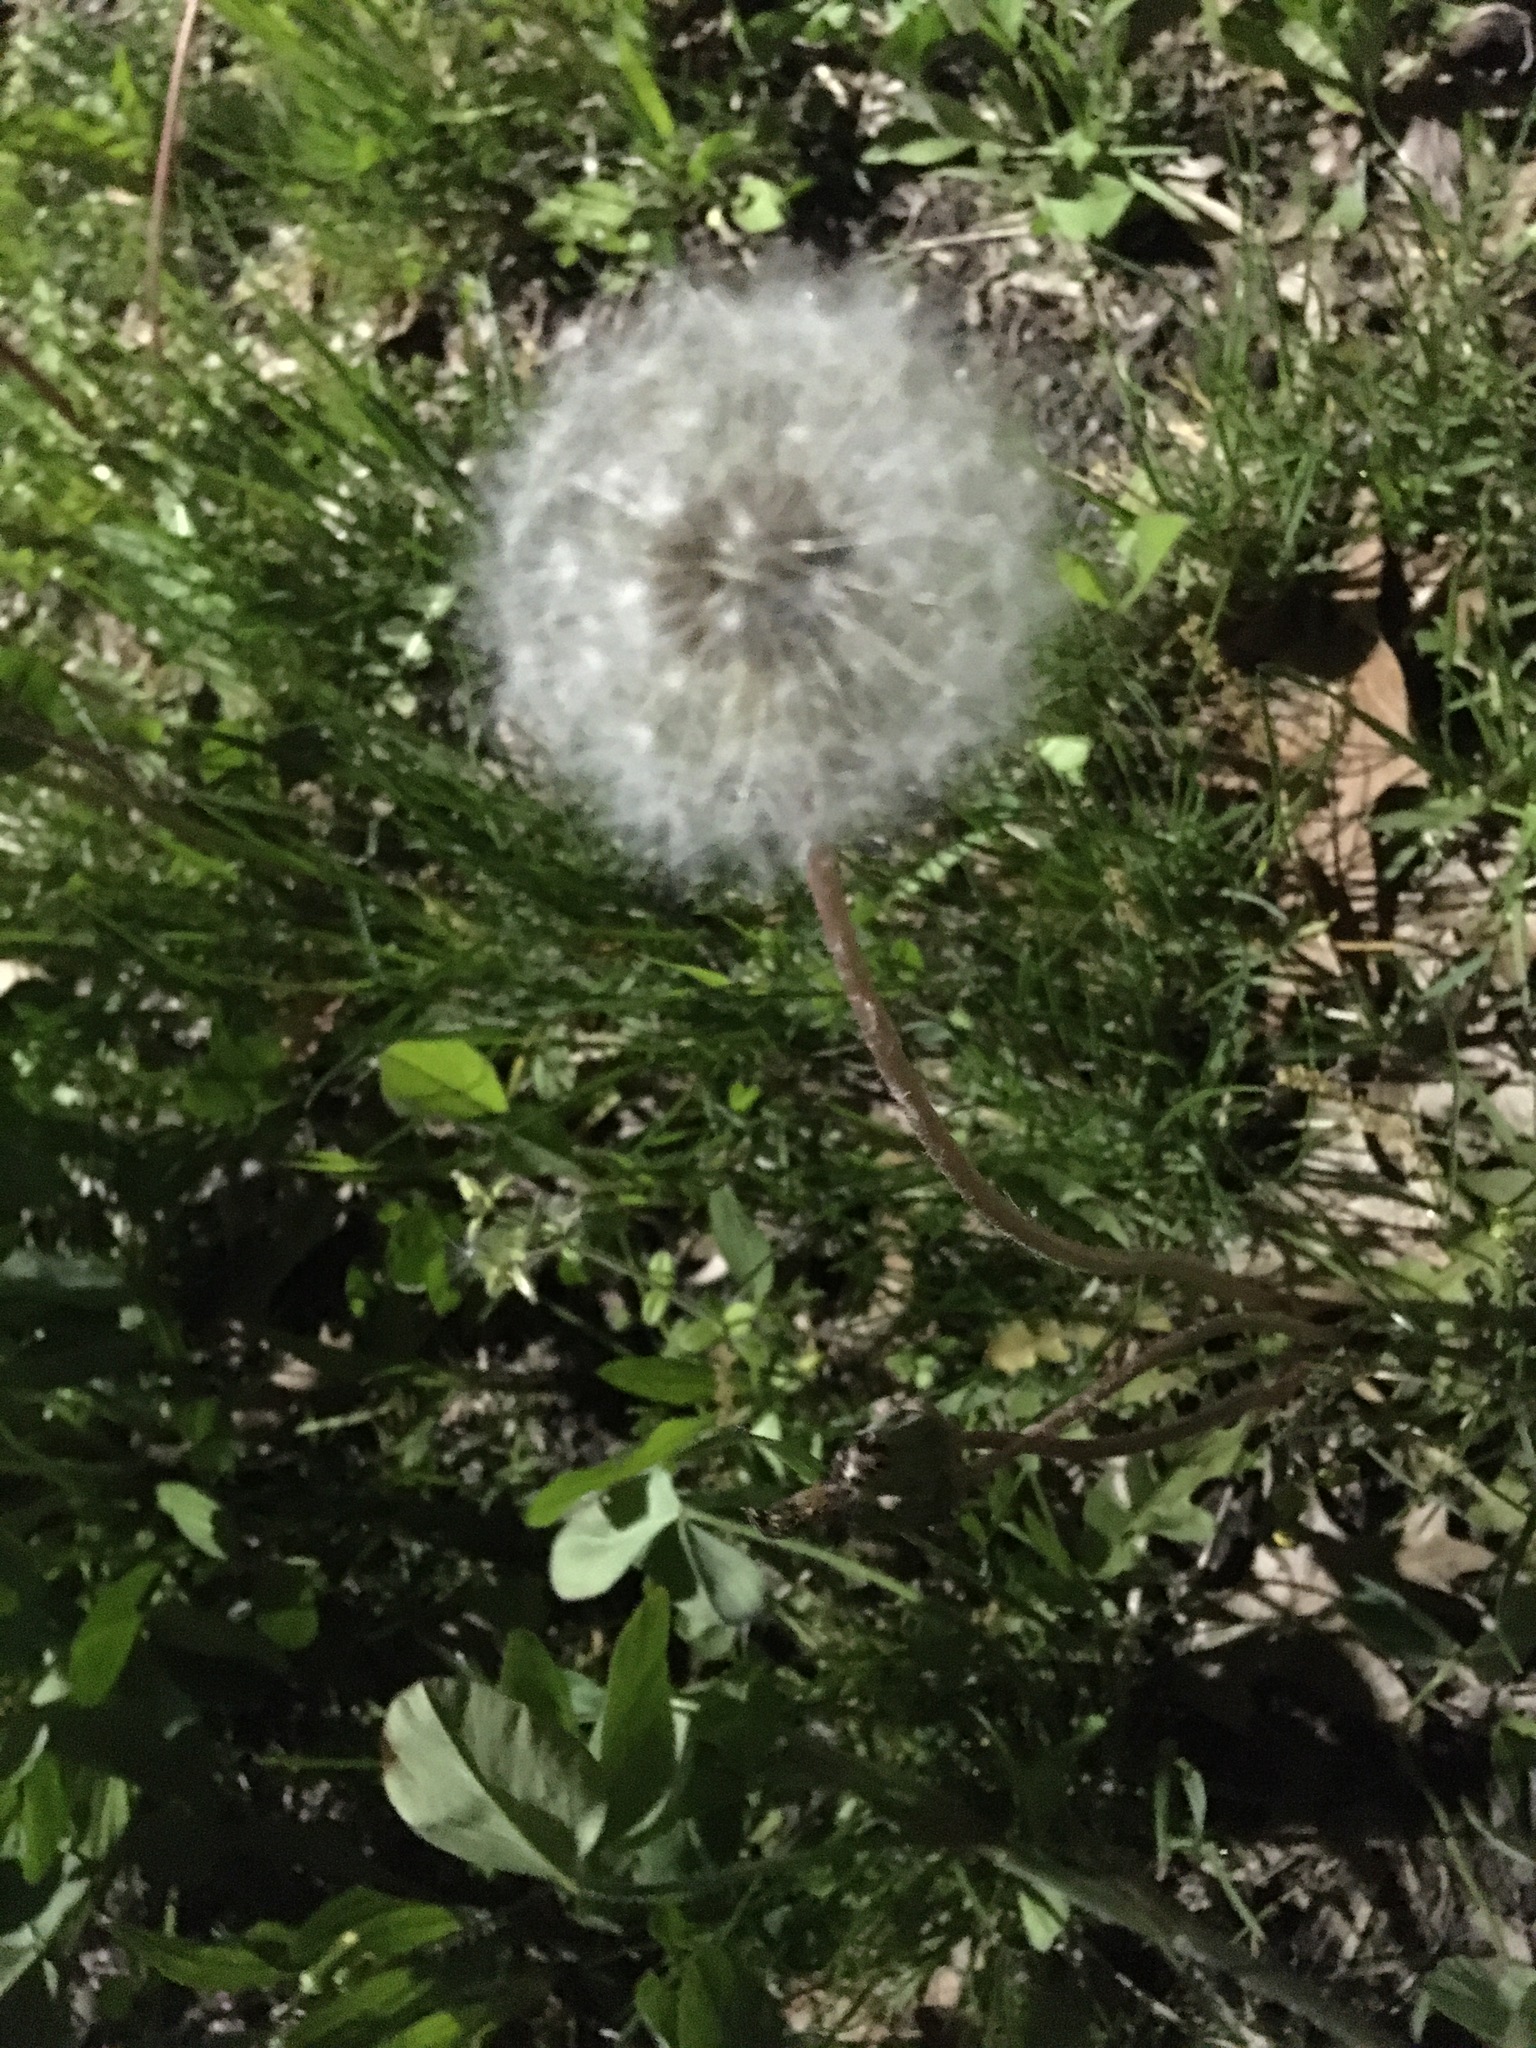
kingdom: Plantae
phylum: Tracheophyta
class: Magnoliopsida
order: Asterales
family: Asteraceae
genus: Taraxacum
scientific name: Taraxacum officinale
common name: Common dandelion
